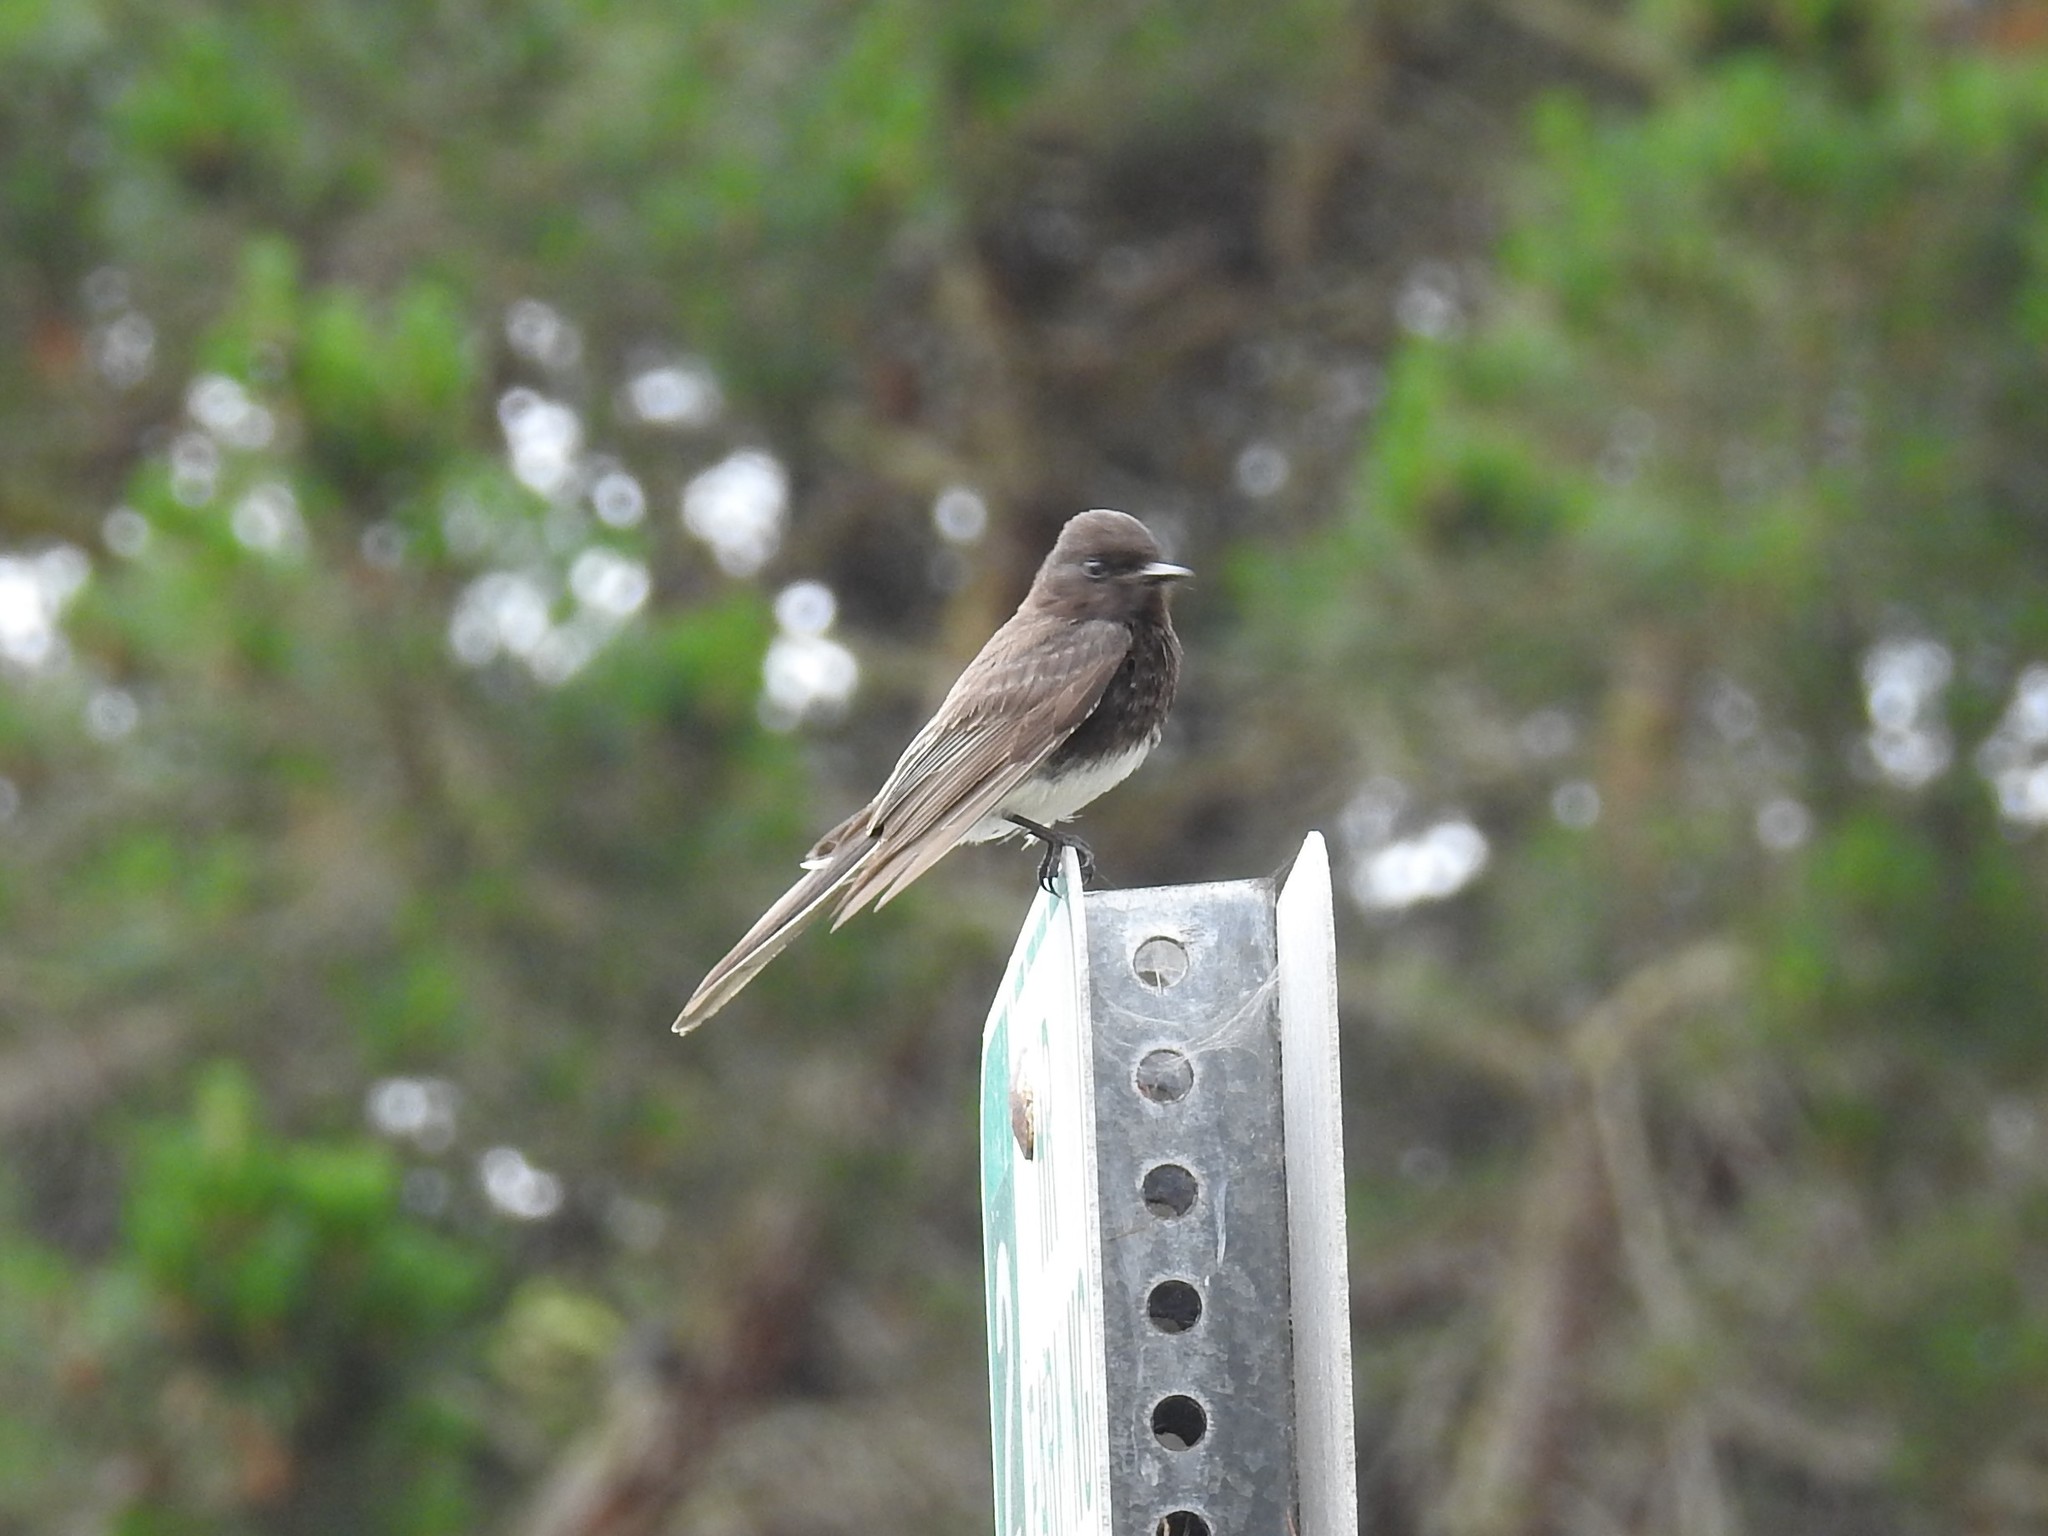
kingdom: Animalia
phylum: Chordata
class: Aves
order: Passeriformes
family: Tyrannidae
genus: Sayornis
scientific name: Sayornis nigricans
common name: Black phoebe
